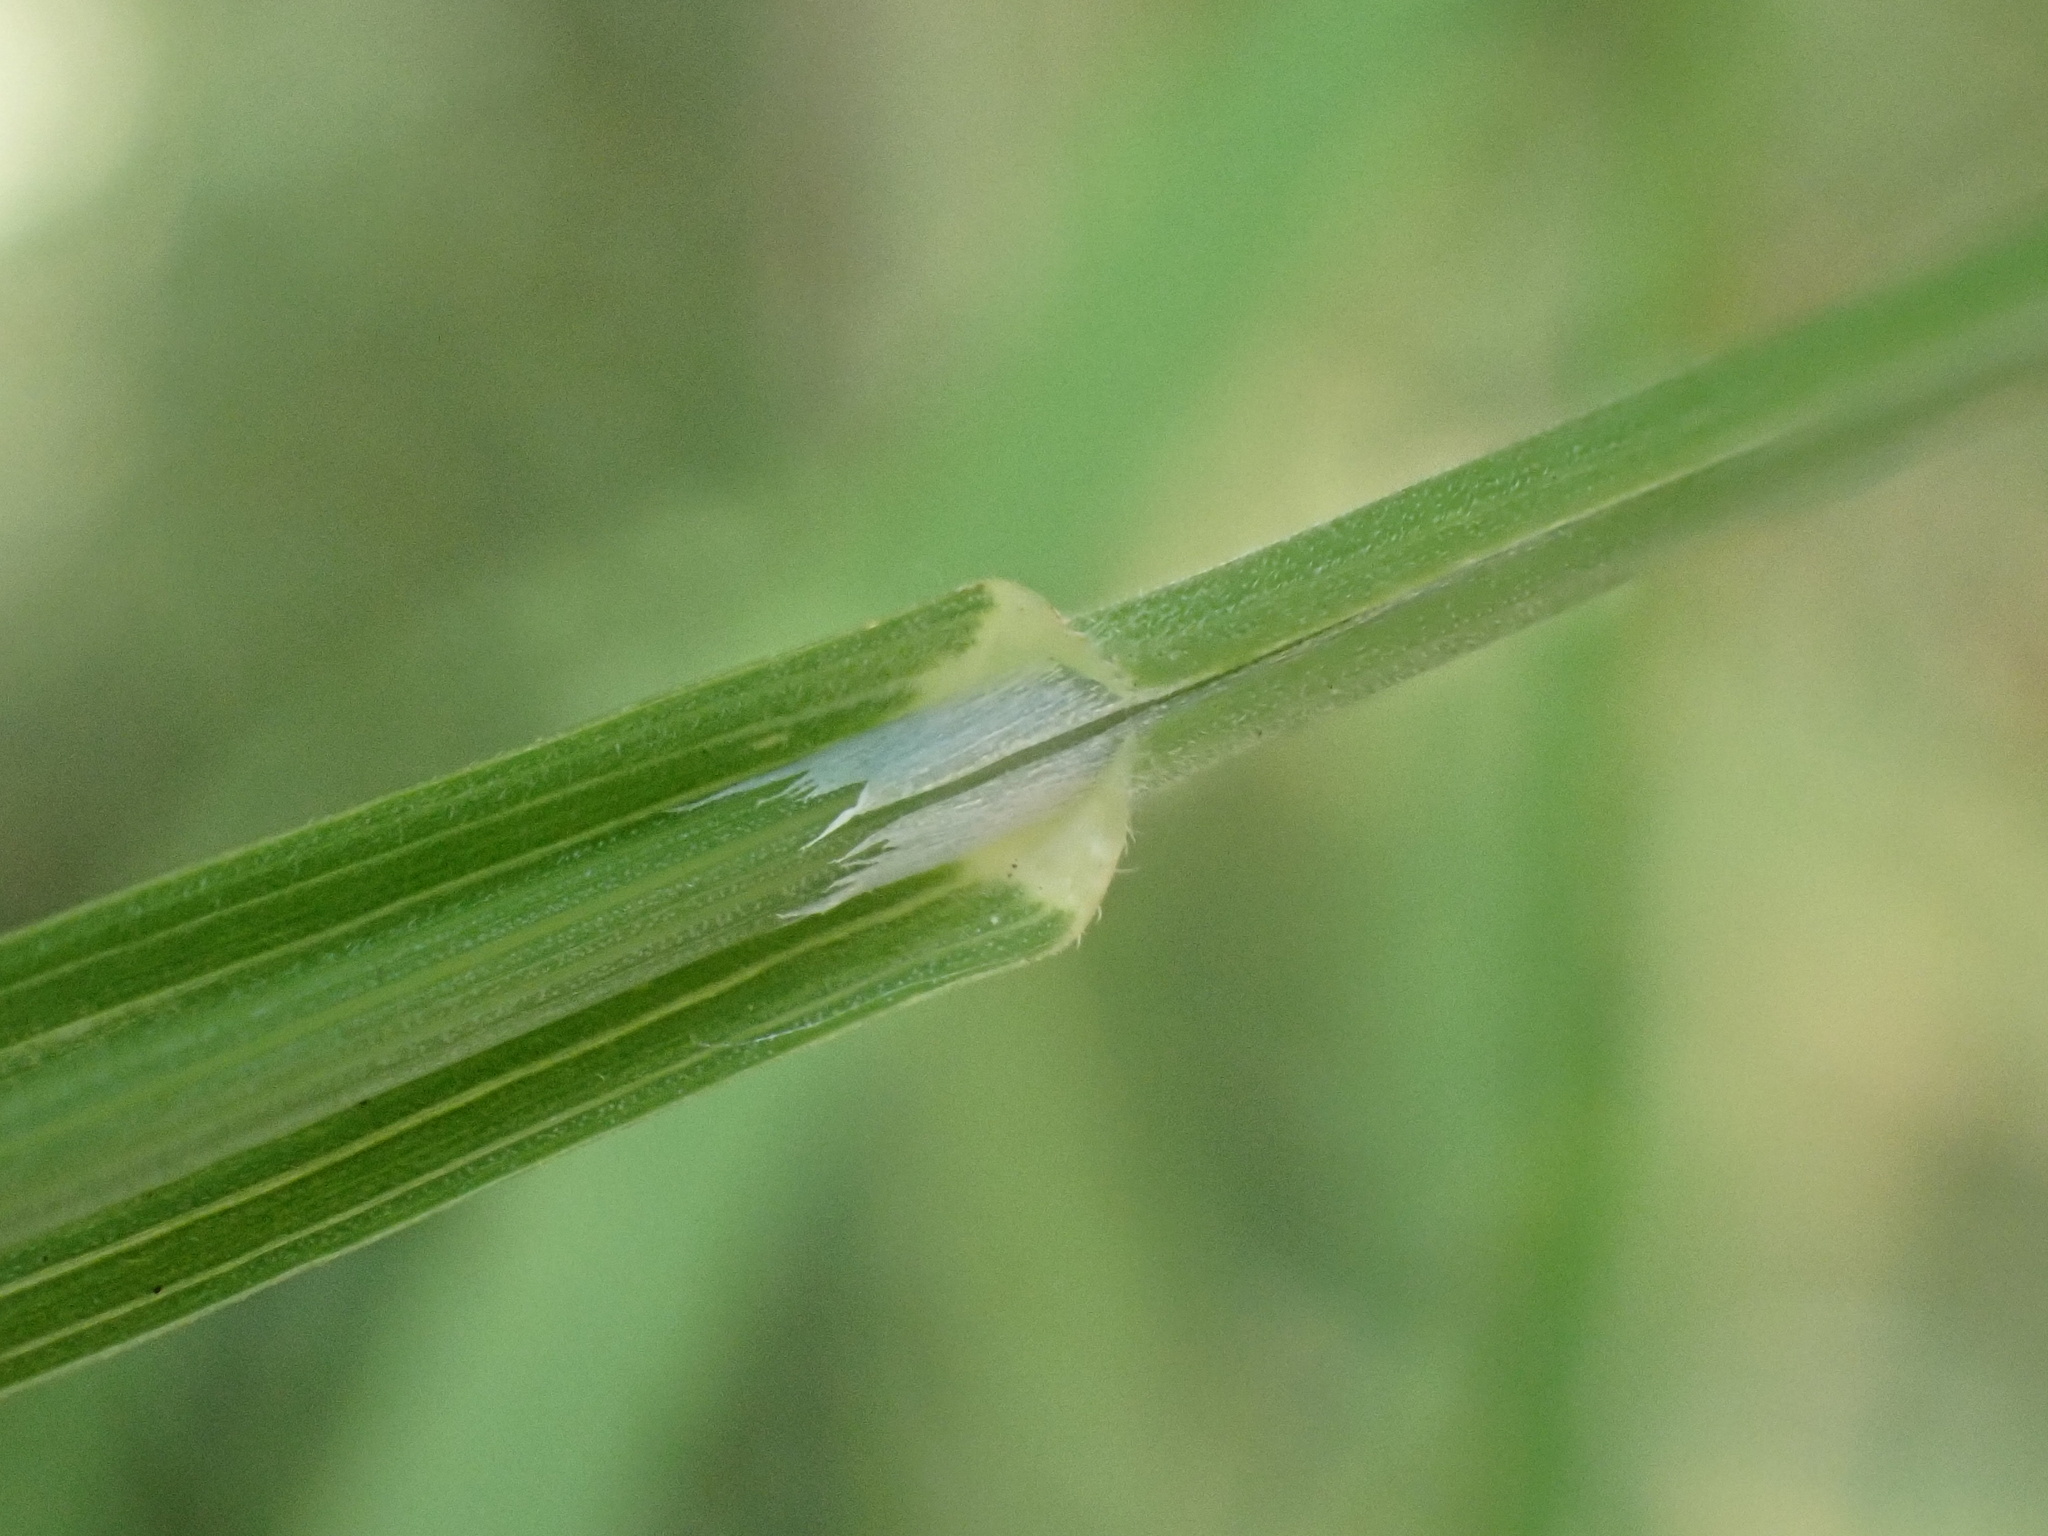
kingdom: Plantae
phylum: Tracheophyta
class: Liliopsida
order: Poales
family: Poaceae
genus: Bromus
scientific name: Bromus sterilis
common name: Poverty brome
